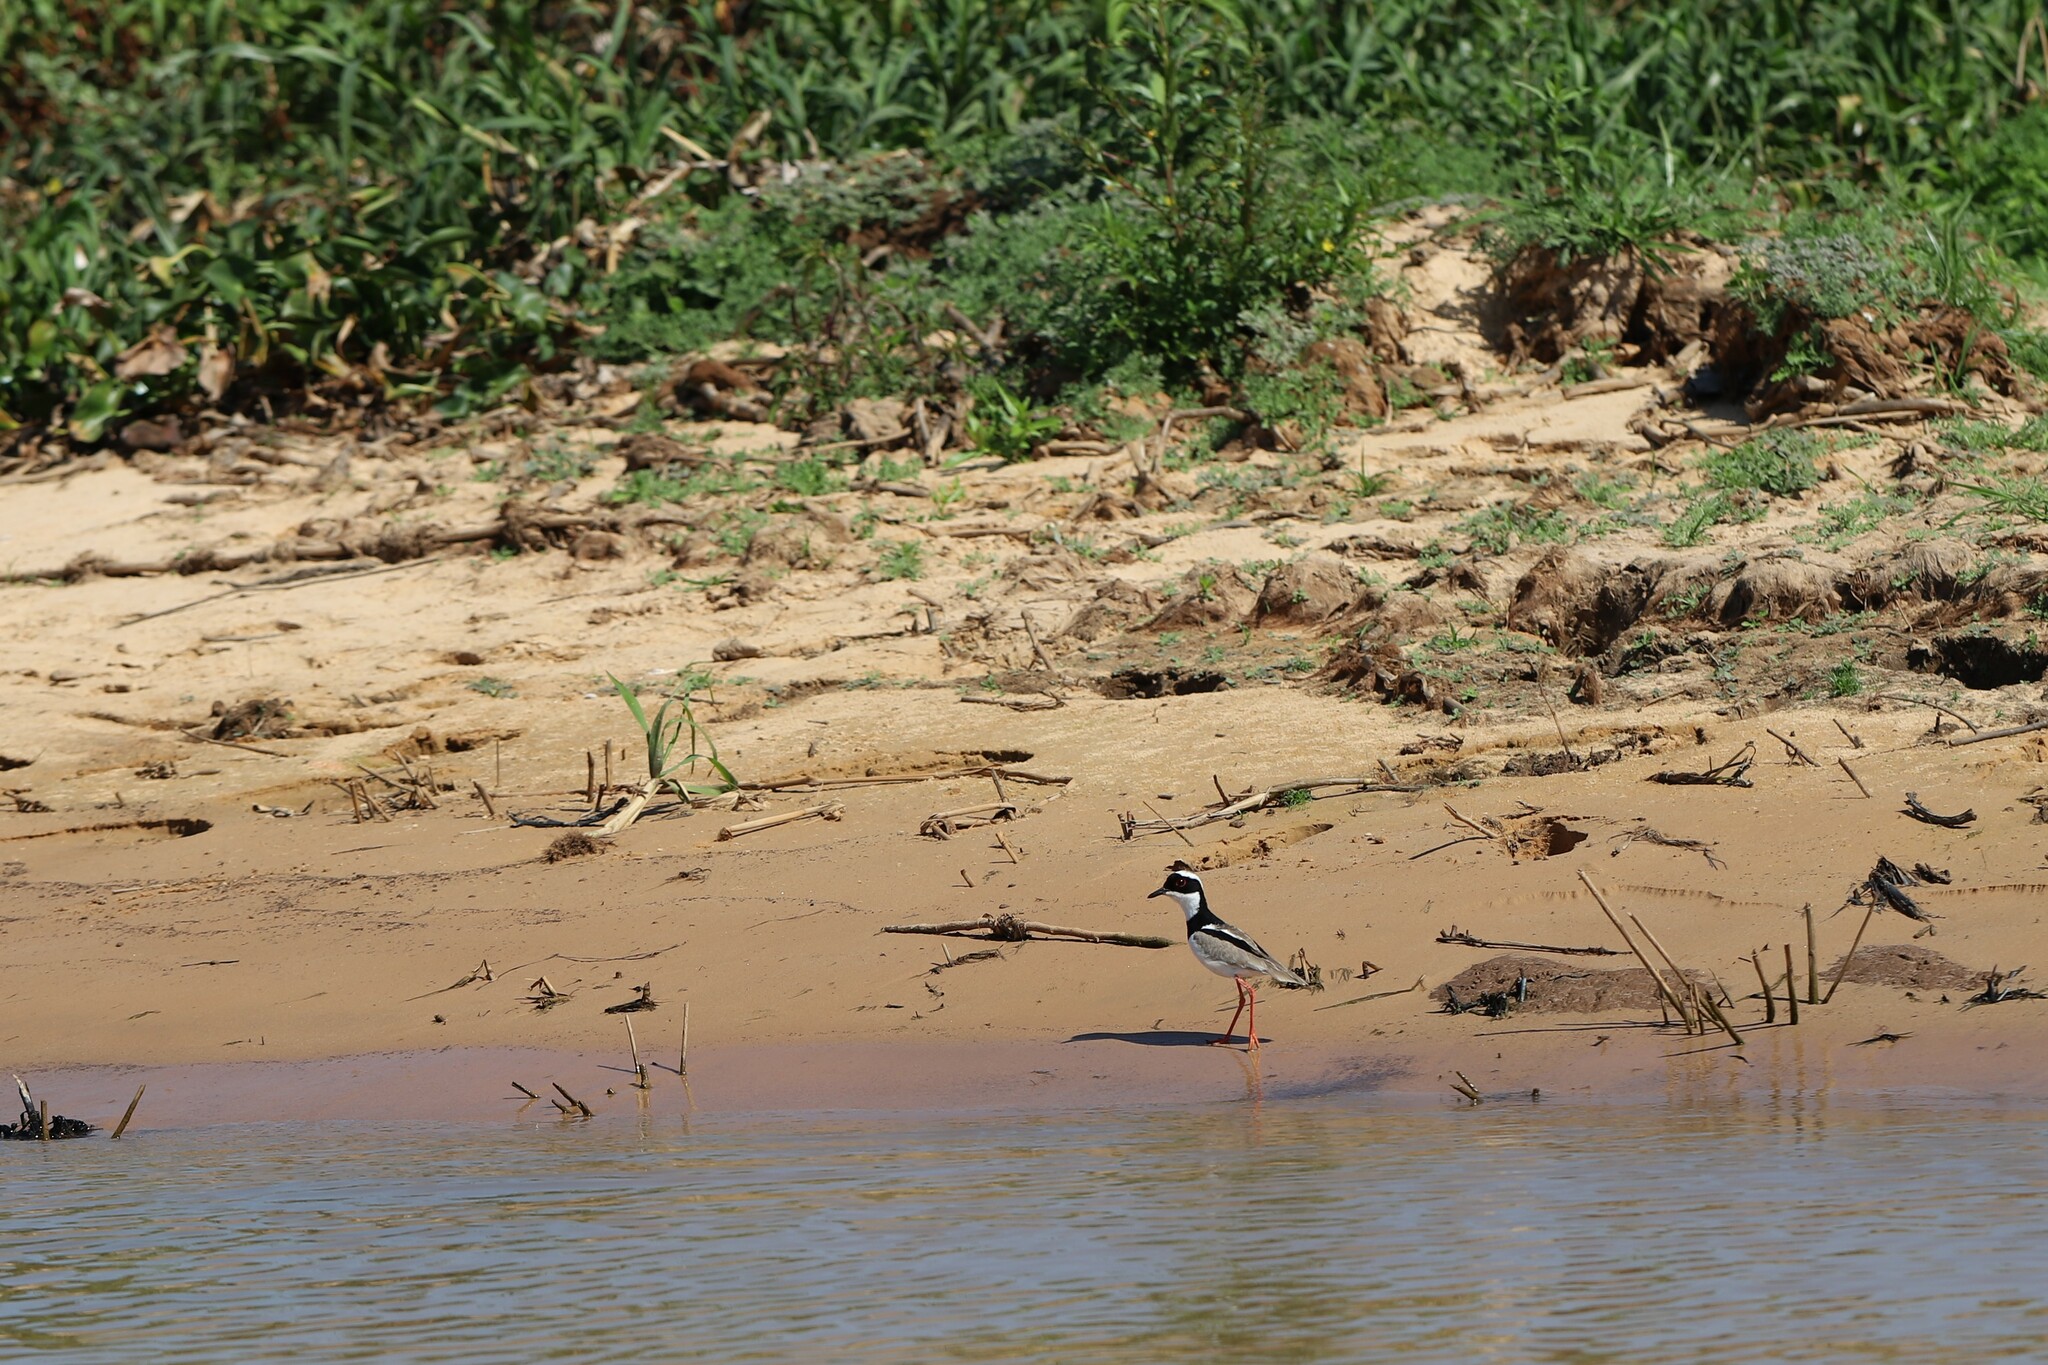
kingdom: Animalia
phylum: Chordata
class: Aves
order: Charadriiformes
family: Charadriidae
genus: Hoploxypterus
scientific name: Hoploxypterus cayanus
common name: Pied plover
